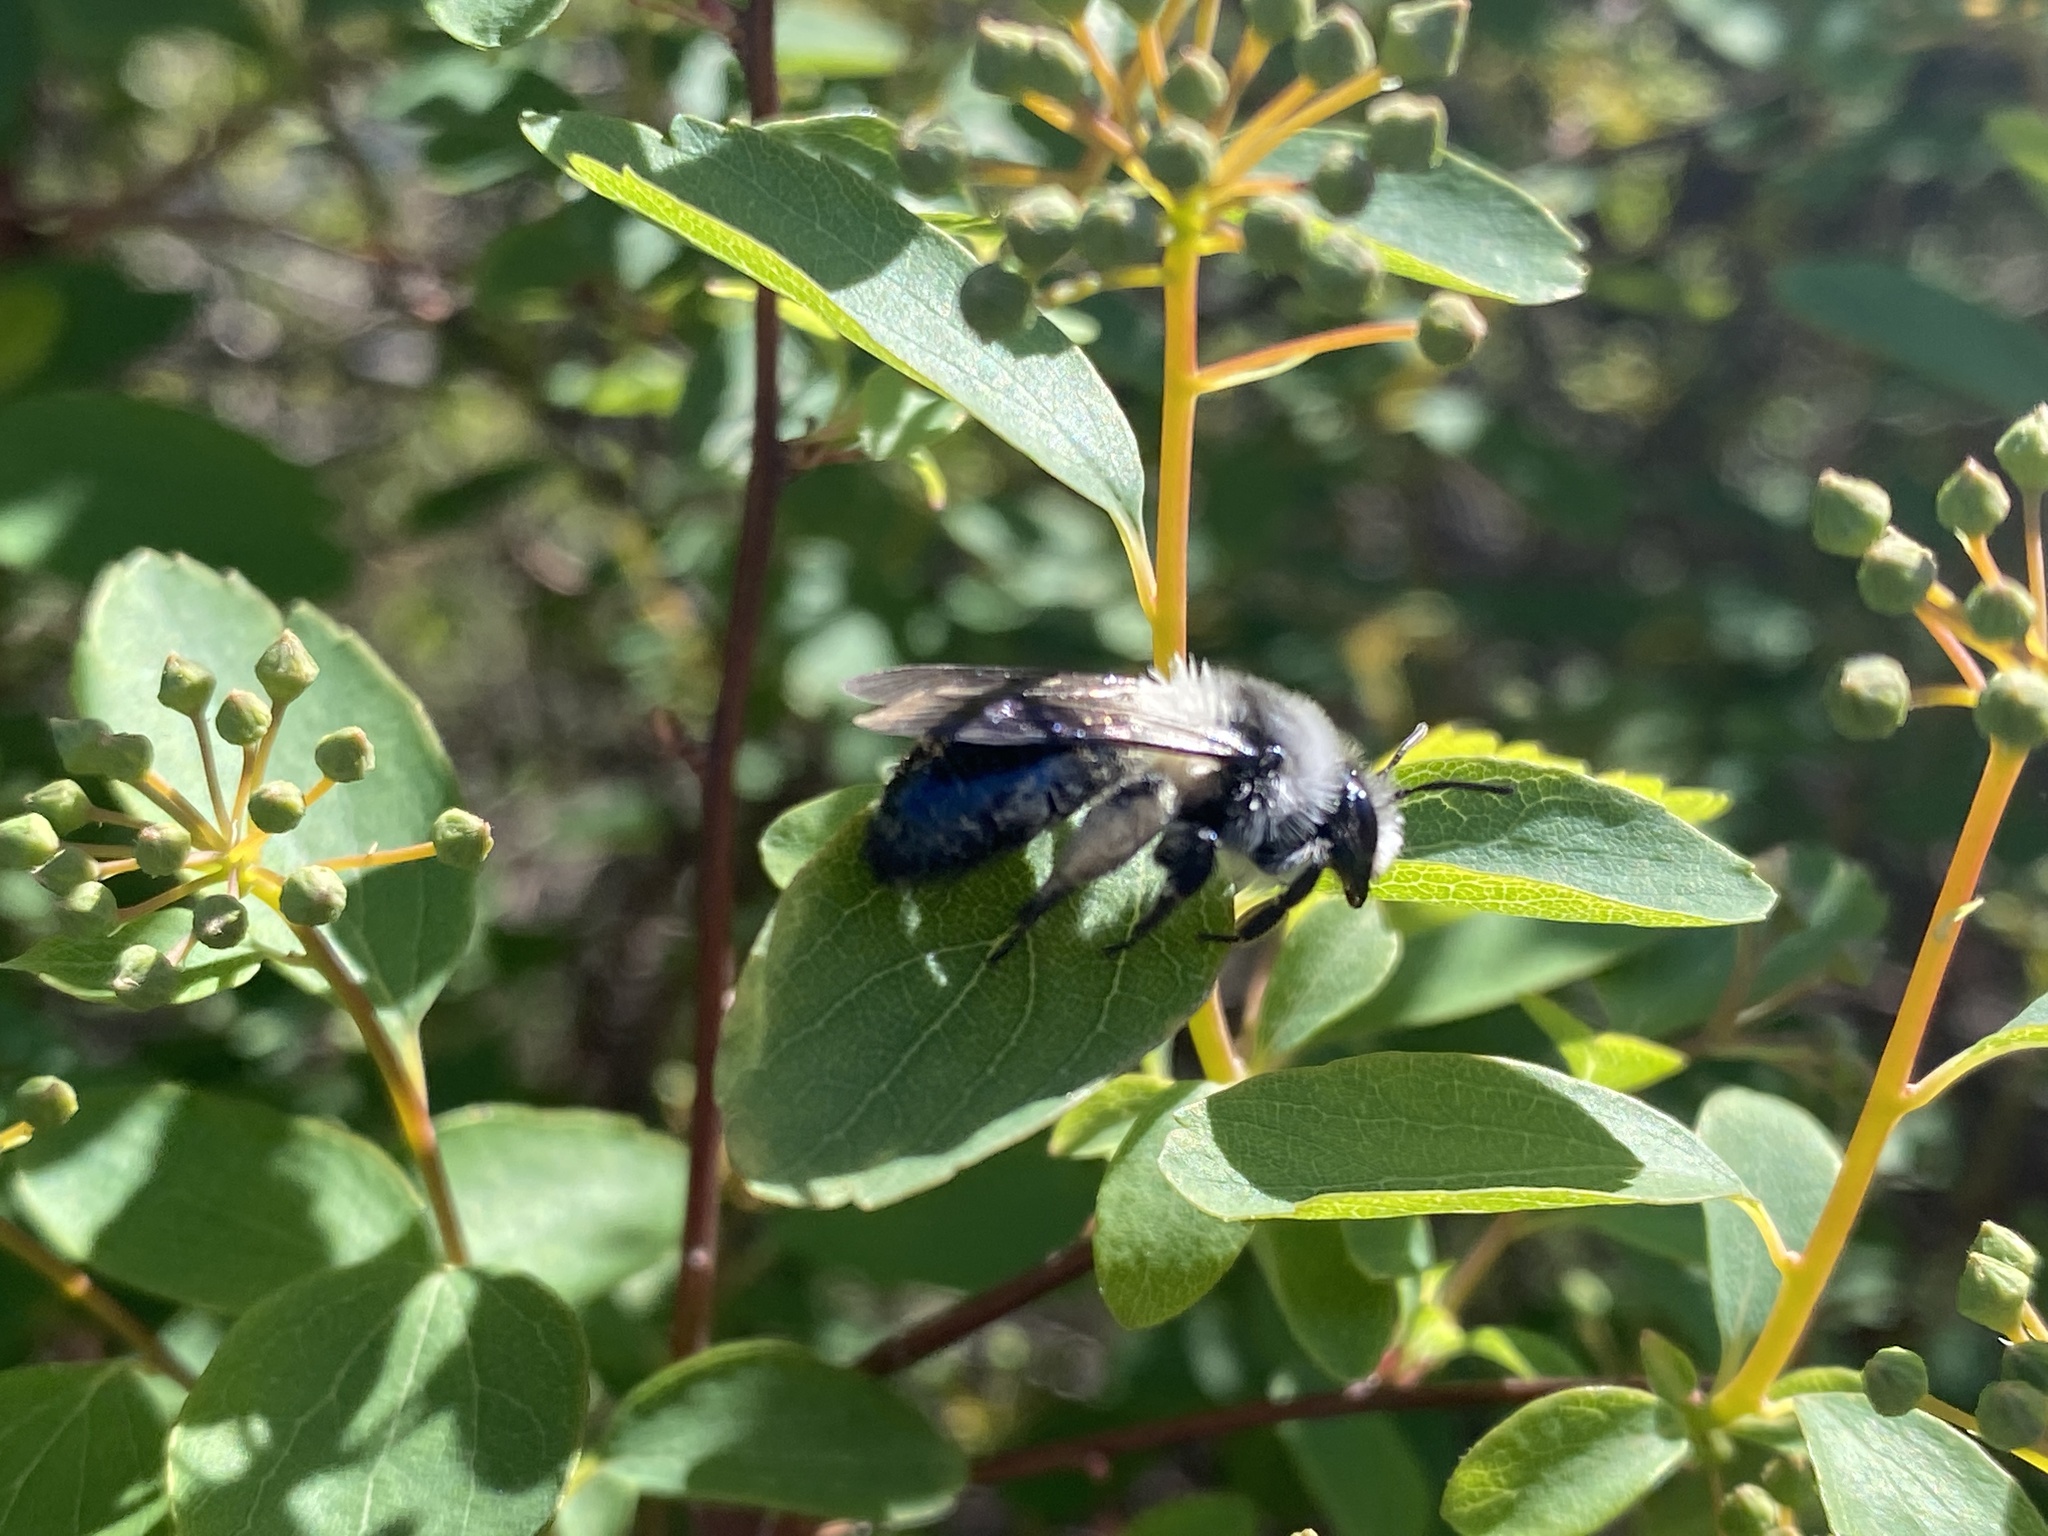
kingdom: Animalia
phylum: Arthropoda
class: Insecta
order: Hymenoptera
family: Andrenidae
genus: Andrena
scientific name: Andrena cineraria
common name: Ashy mining bee
